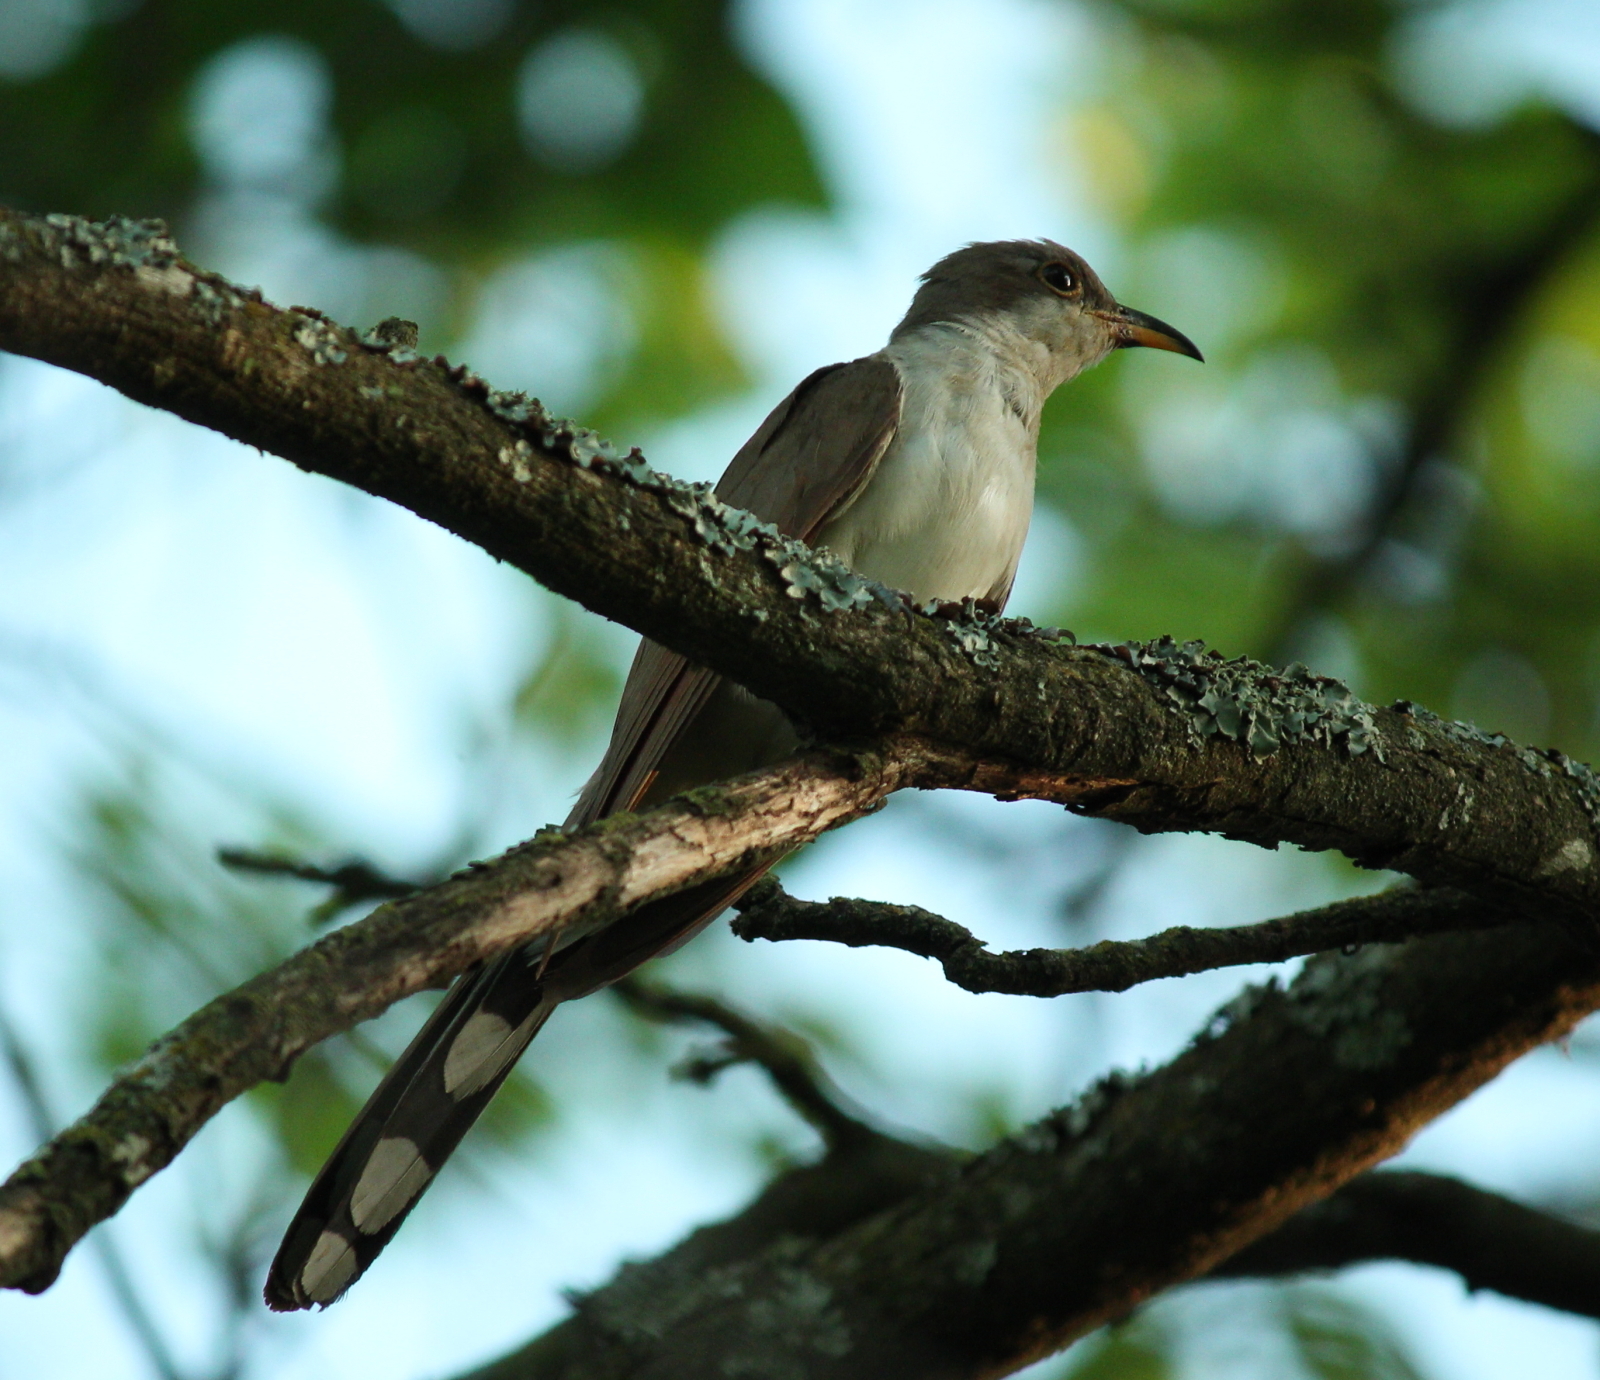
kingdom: Animalia
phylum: Chordata
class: Aves
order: Cuculiformes
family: Cuculidae
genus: Coccyzus
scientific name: Coccyzus americanus
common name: Yellow-billed cuckoo
